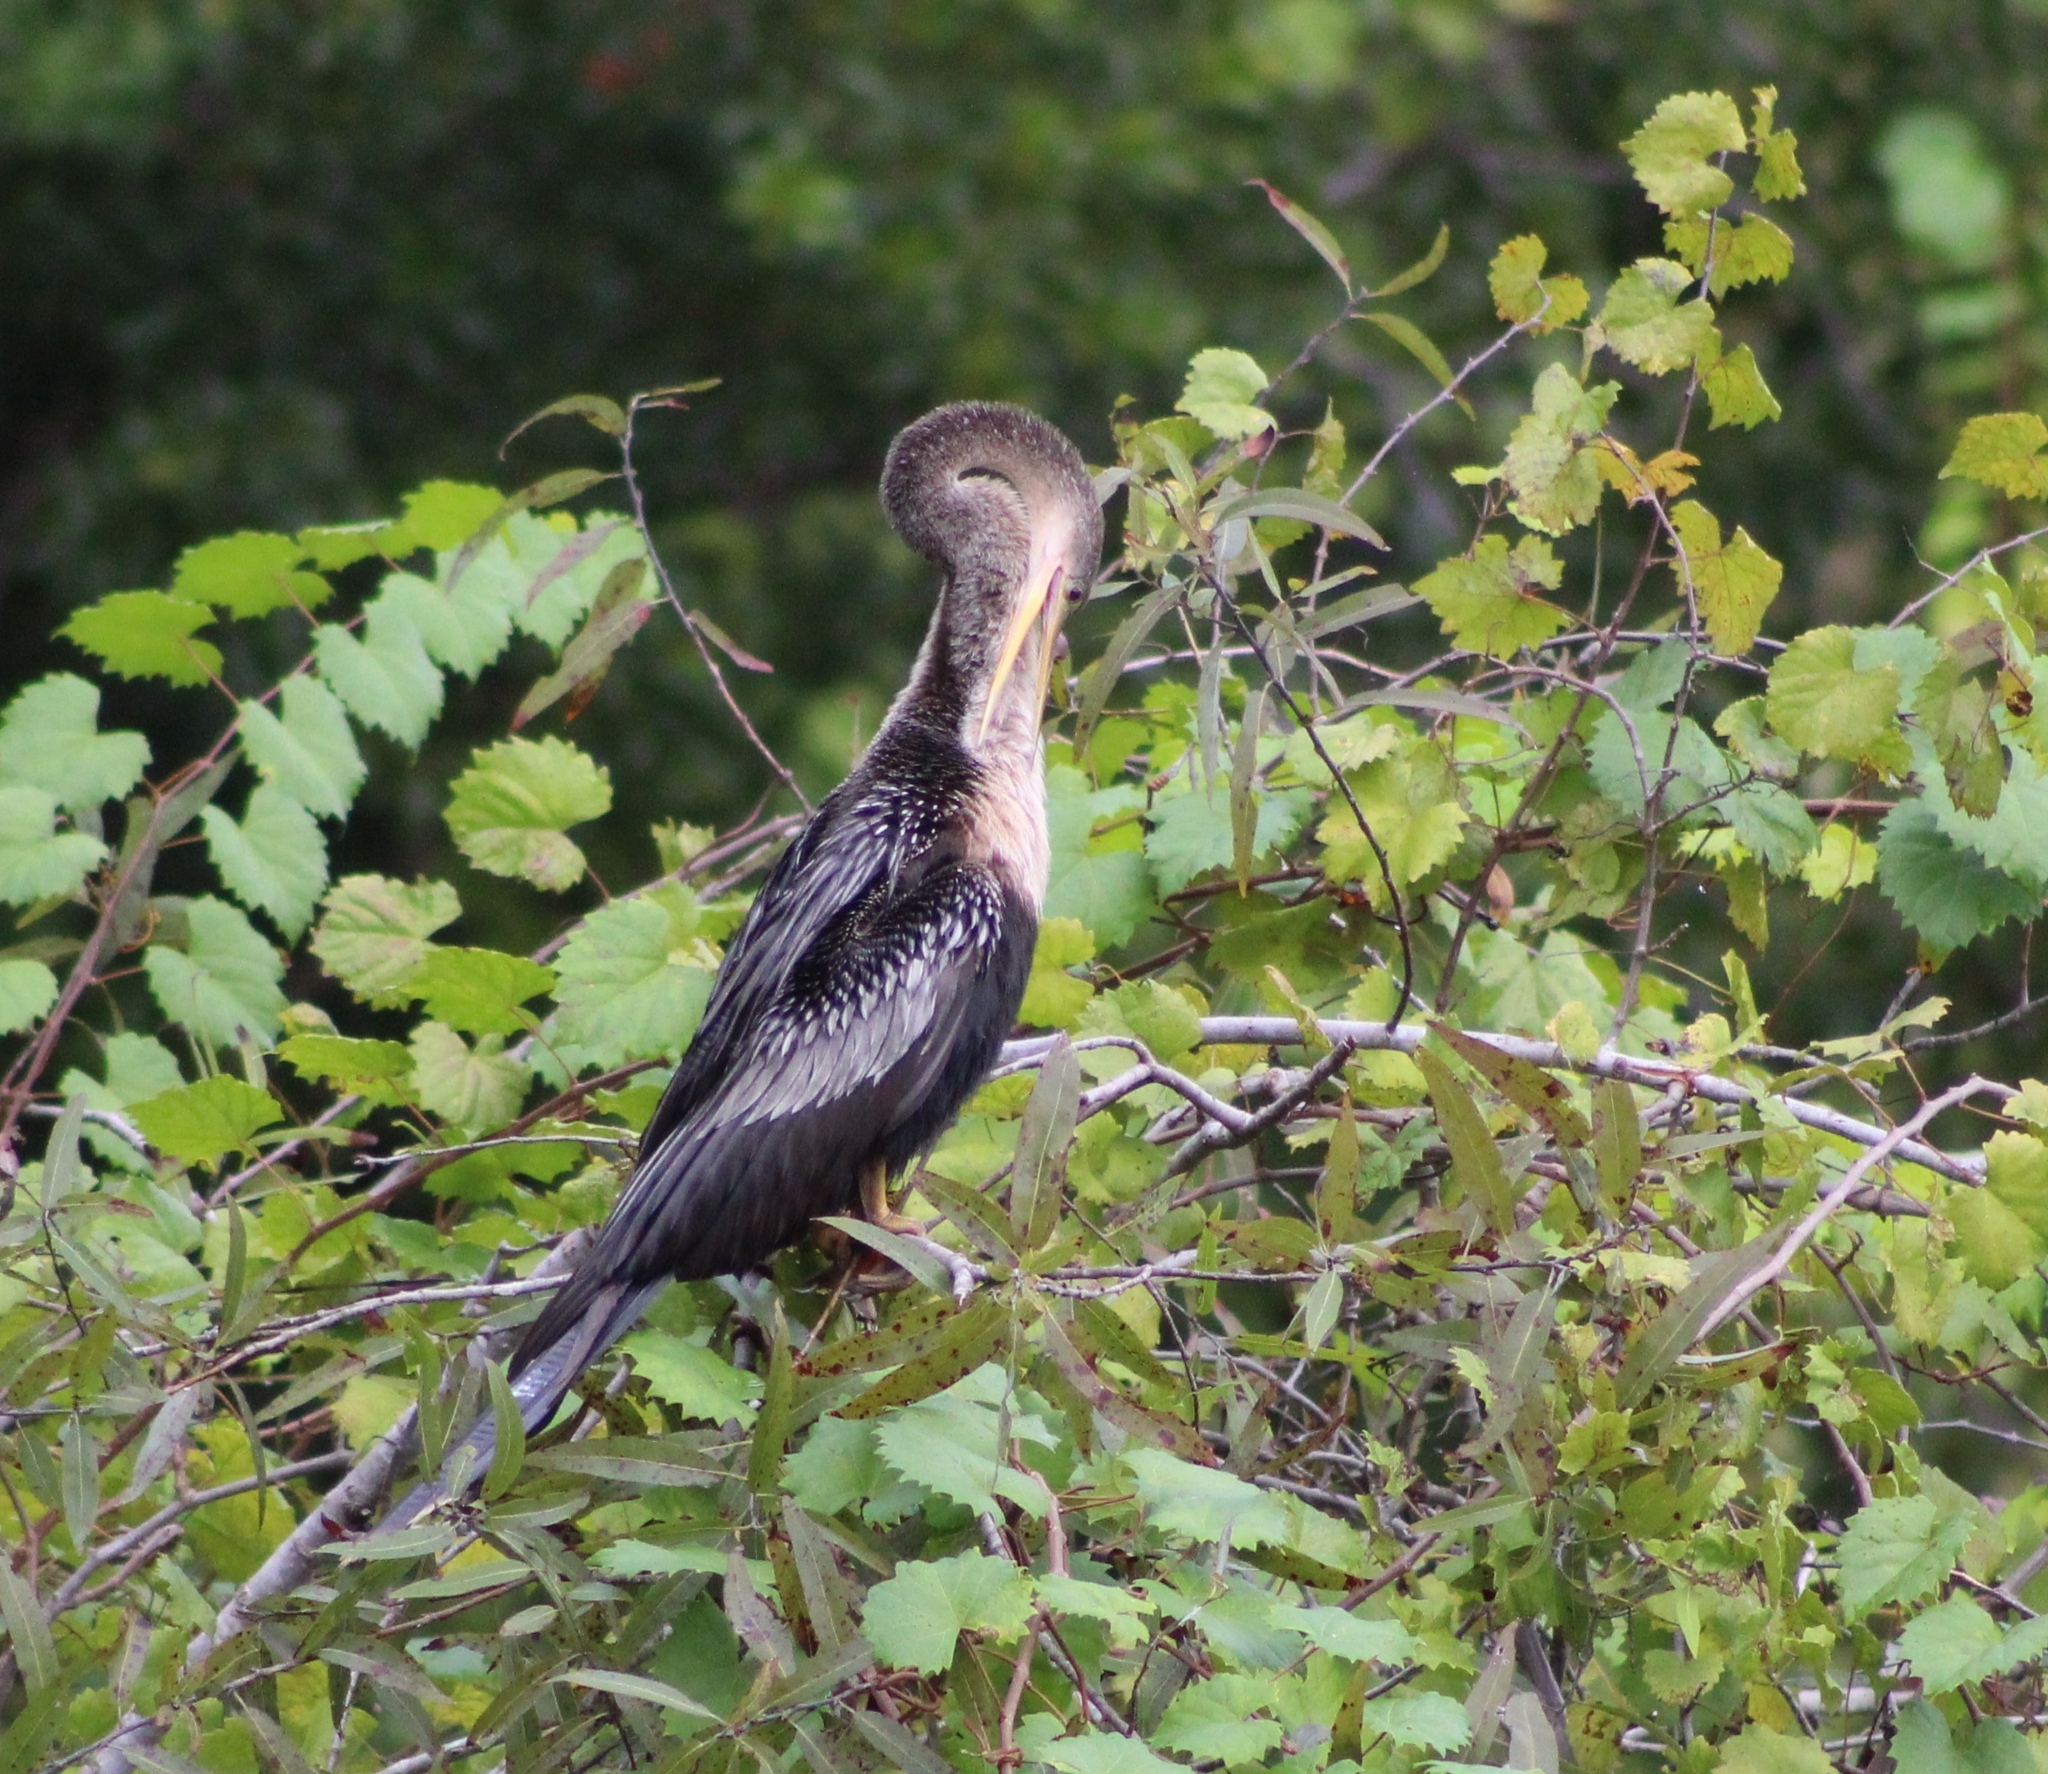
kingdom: Animalia
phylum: Chordata
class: Aves
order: Suliformes
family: Anhingidae
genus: Anhinga
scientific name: Anhinga anhinga
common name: Anhinga
